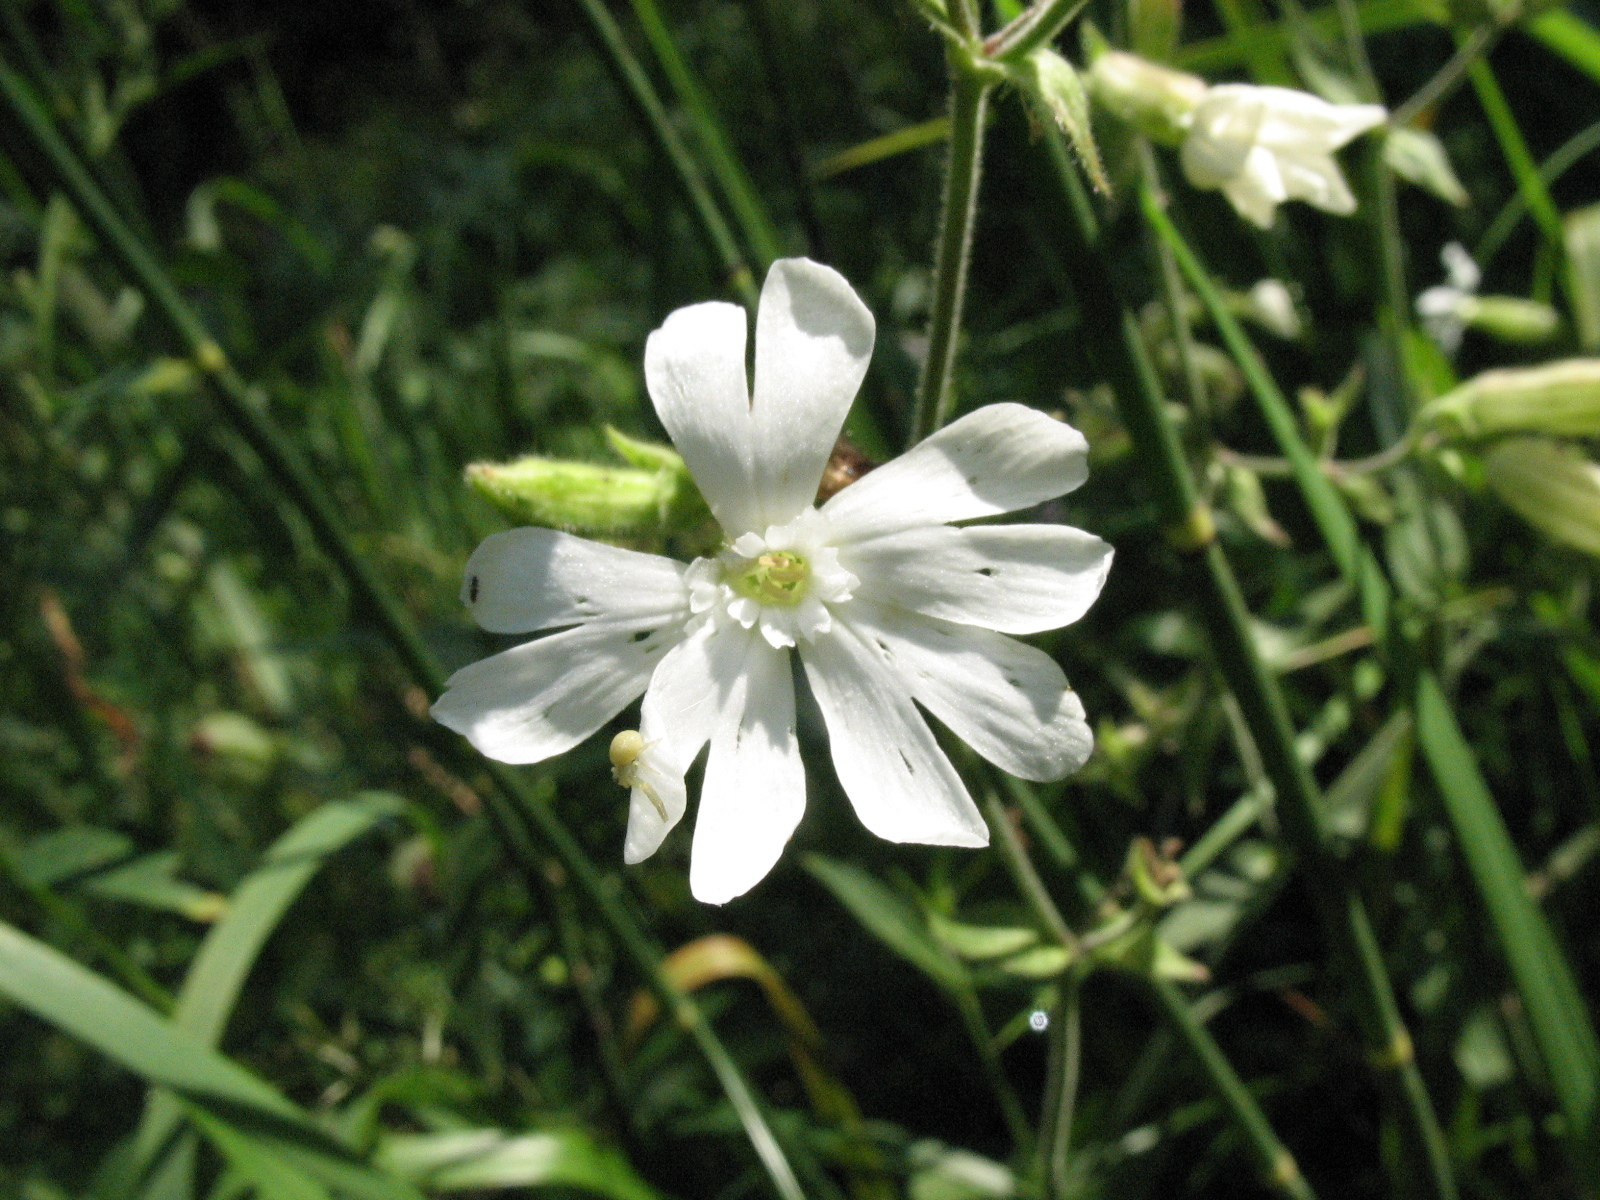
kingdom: Plantae
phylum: Tracheophyta
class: Magnoliopsida
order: Caryophyllales
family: Caryophyllaceae
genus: Silene
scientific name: Silene latifolia
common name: White campion
